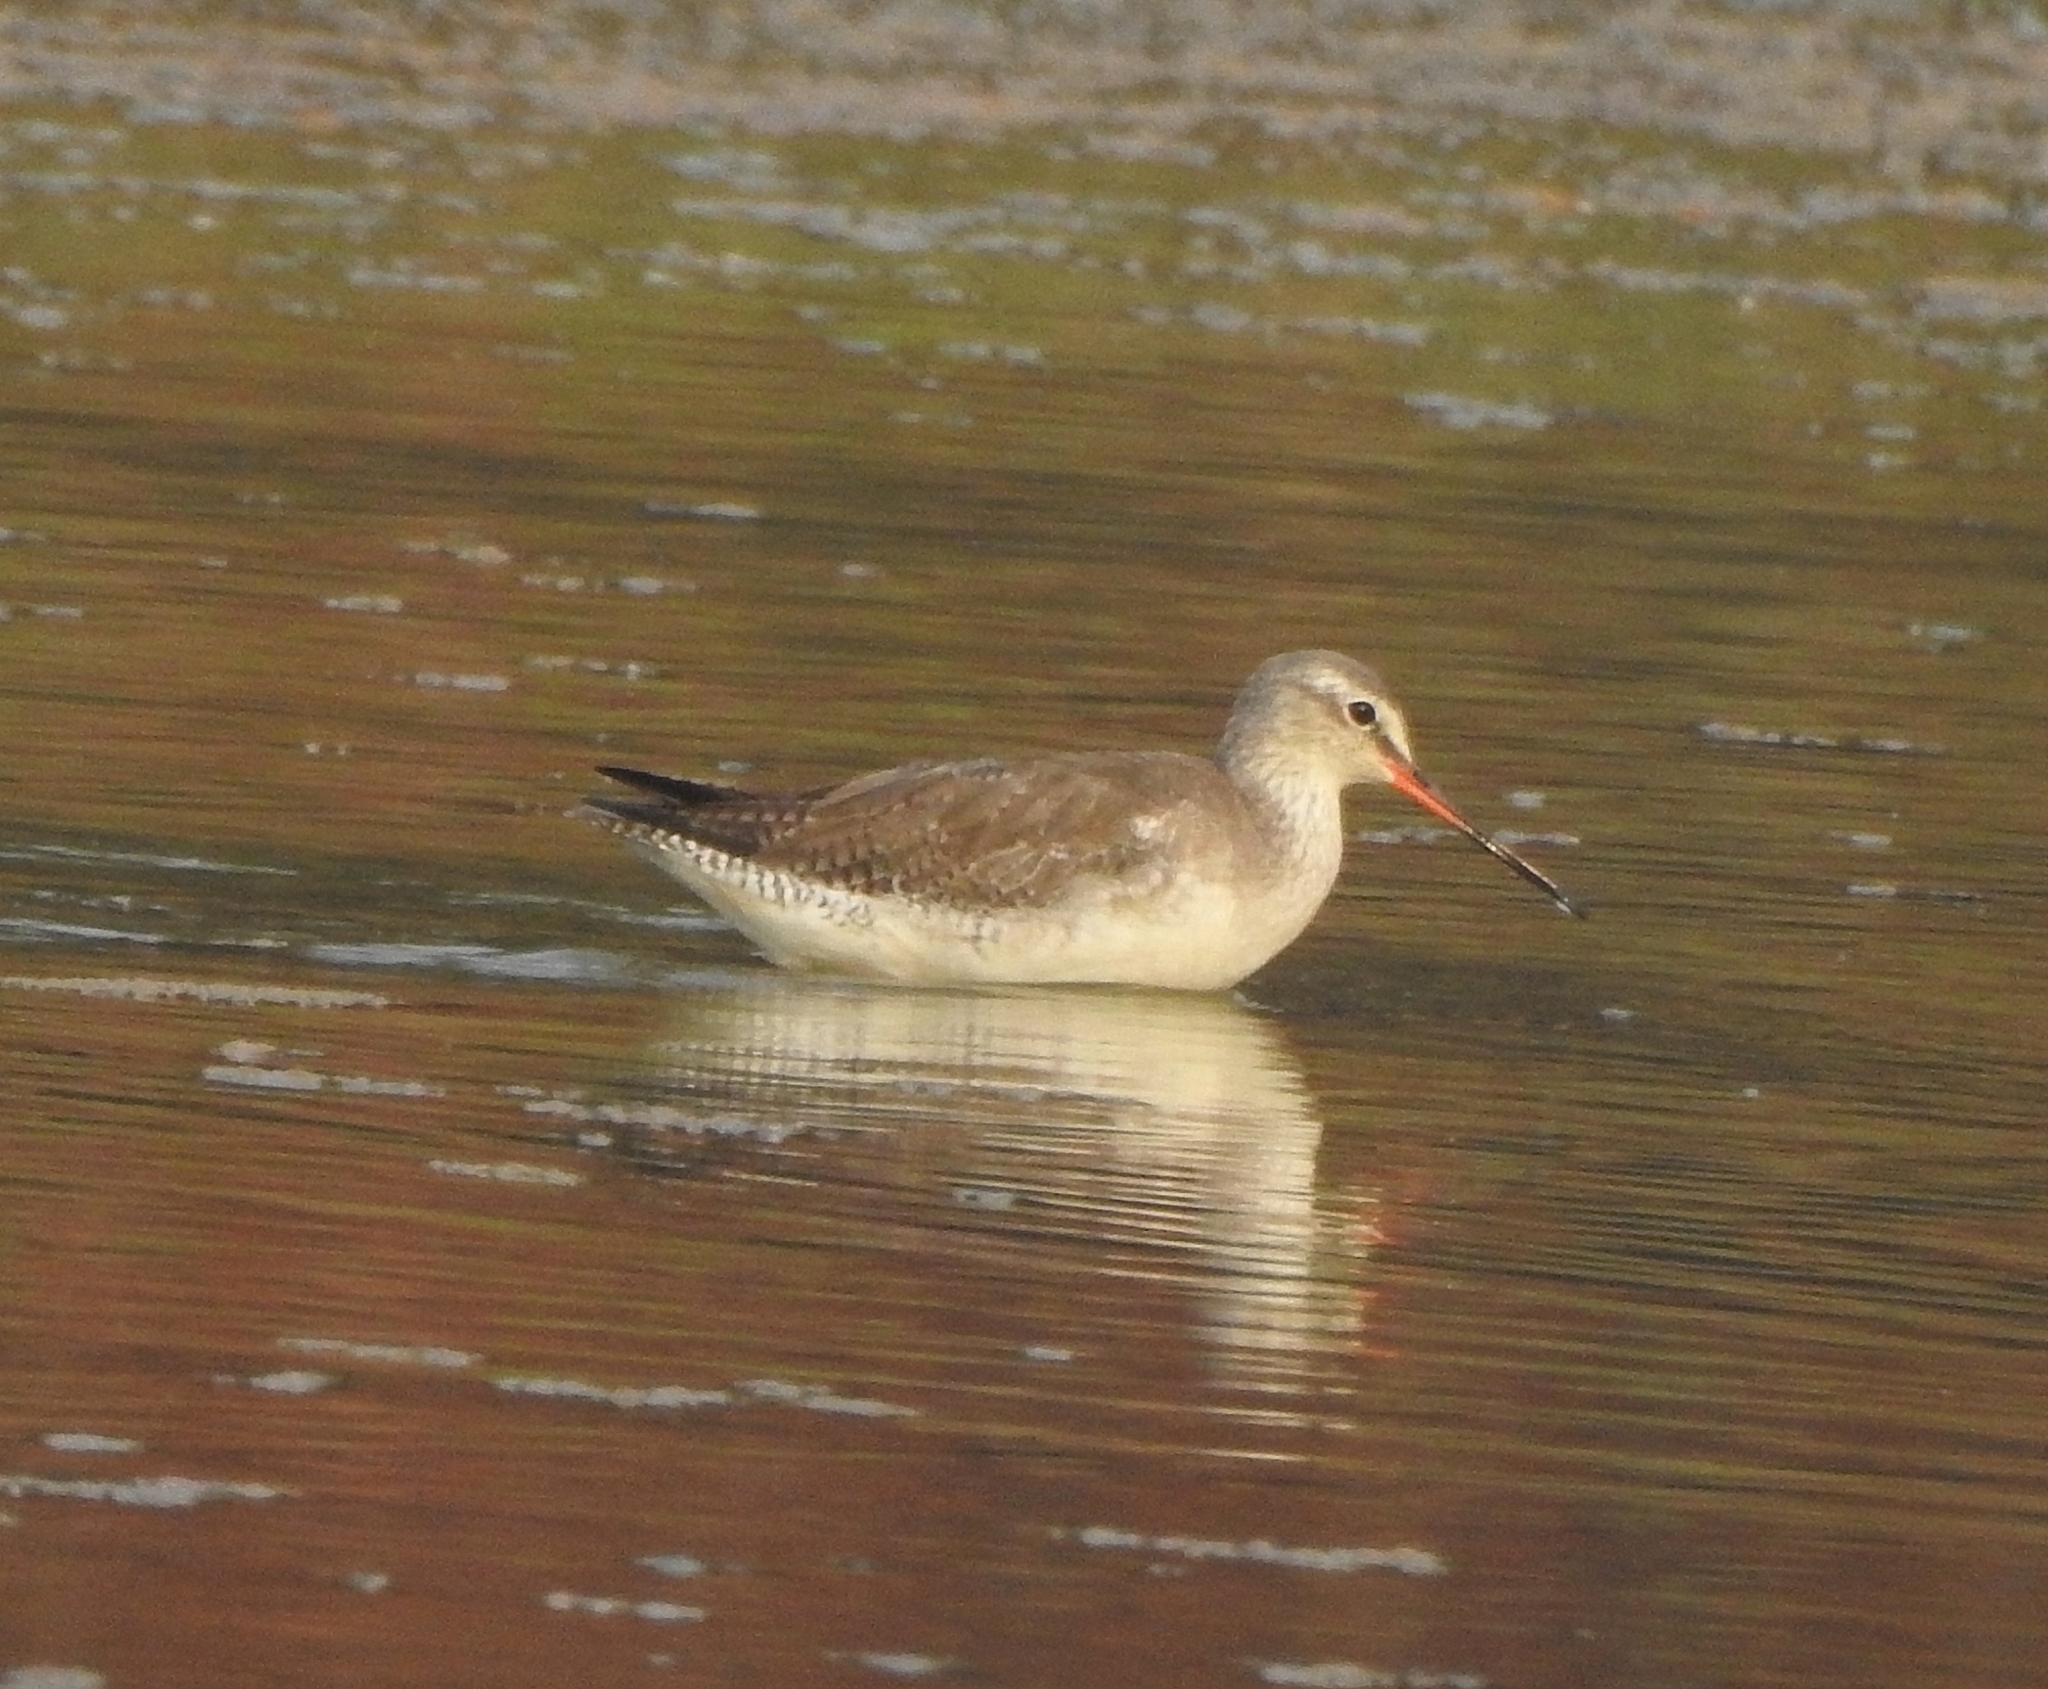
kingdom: Animalia
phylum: Chordata
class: Aves
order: Charadriiformes
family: Scolopacidae
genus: Tringa
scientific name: Tringa erythropus
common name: Spotted redshank
